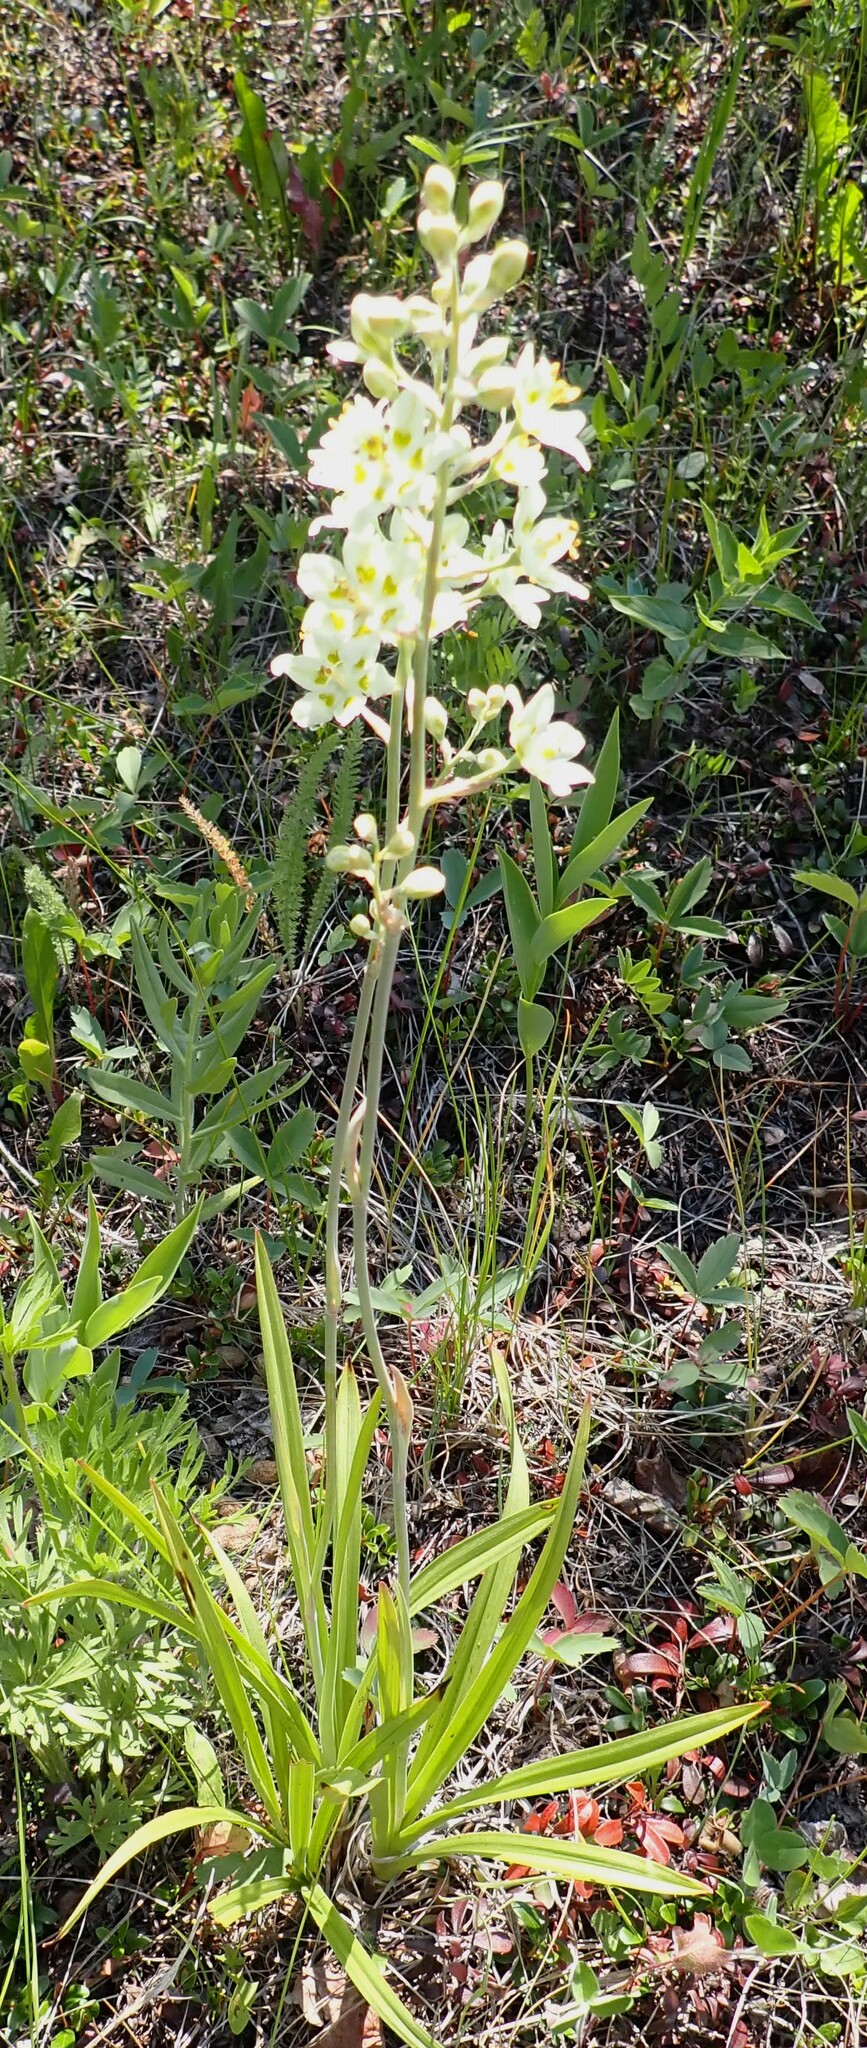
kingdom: Plantae
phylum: Tracheophyta
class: Liliopsida
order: Liliales
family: Melanthiaceae
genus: Anticlea
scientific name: Anticlea elegans
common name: Mountain death camas
